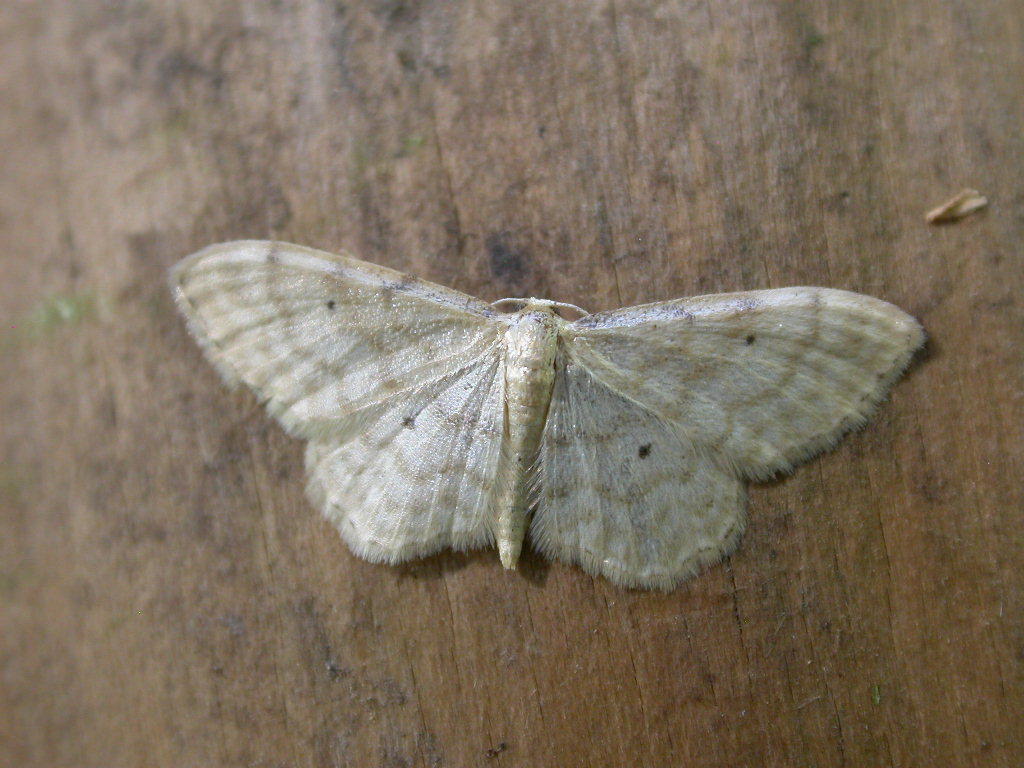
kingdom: Animalia
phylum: Arthropoda
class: Insecta
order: Lepidoptera
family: Geometridae
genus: Idaea
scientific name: Idaea fuscovenosa
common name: Dwarf cream wave
